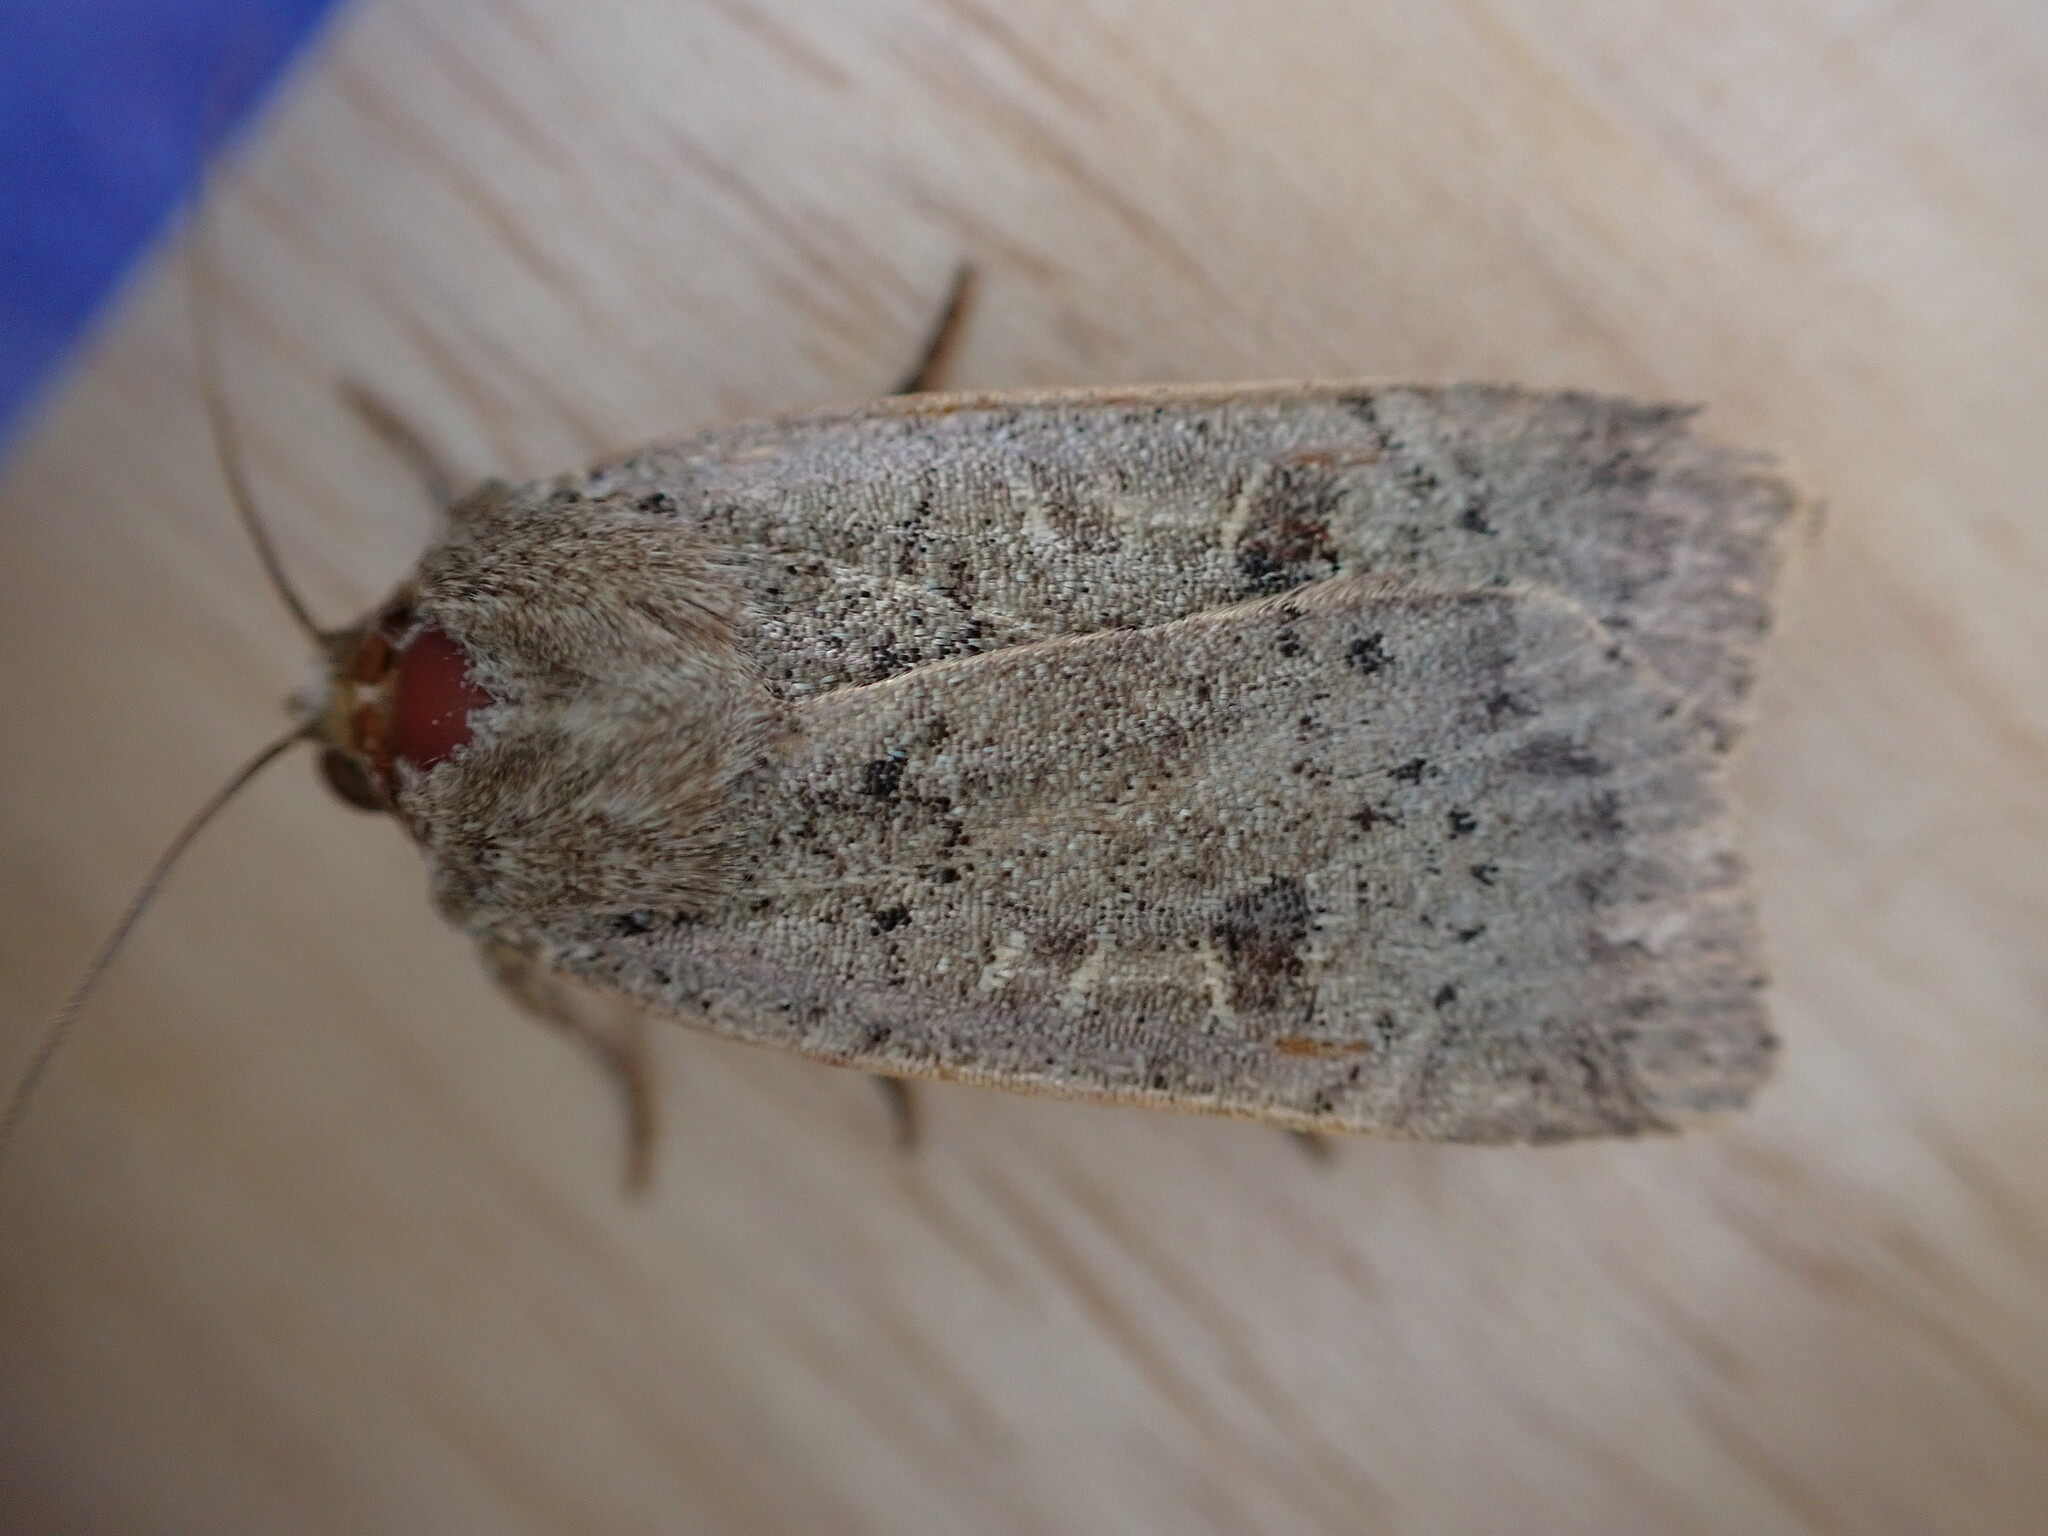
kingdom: Animalia
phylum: Arthropoda
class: Insecta
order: Lepidoptera
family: Noctuidae
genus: Noctua
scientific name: Noctua comes
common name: Lesser yellow underwing
